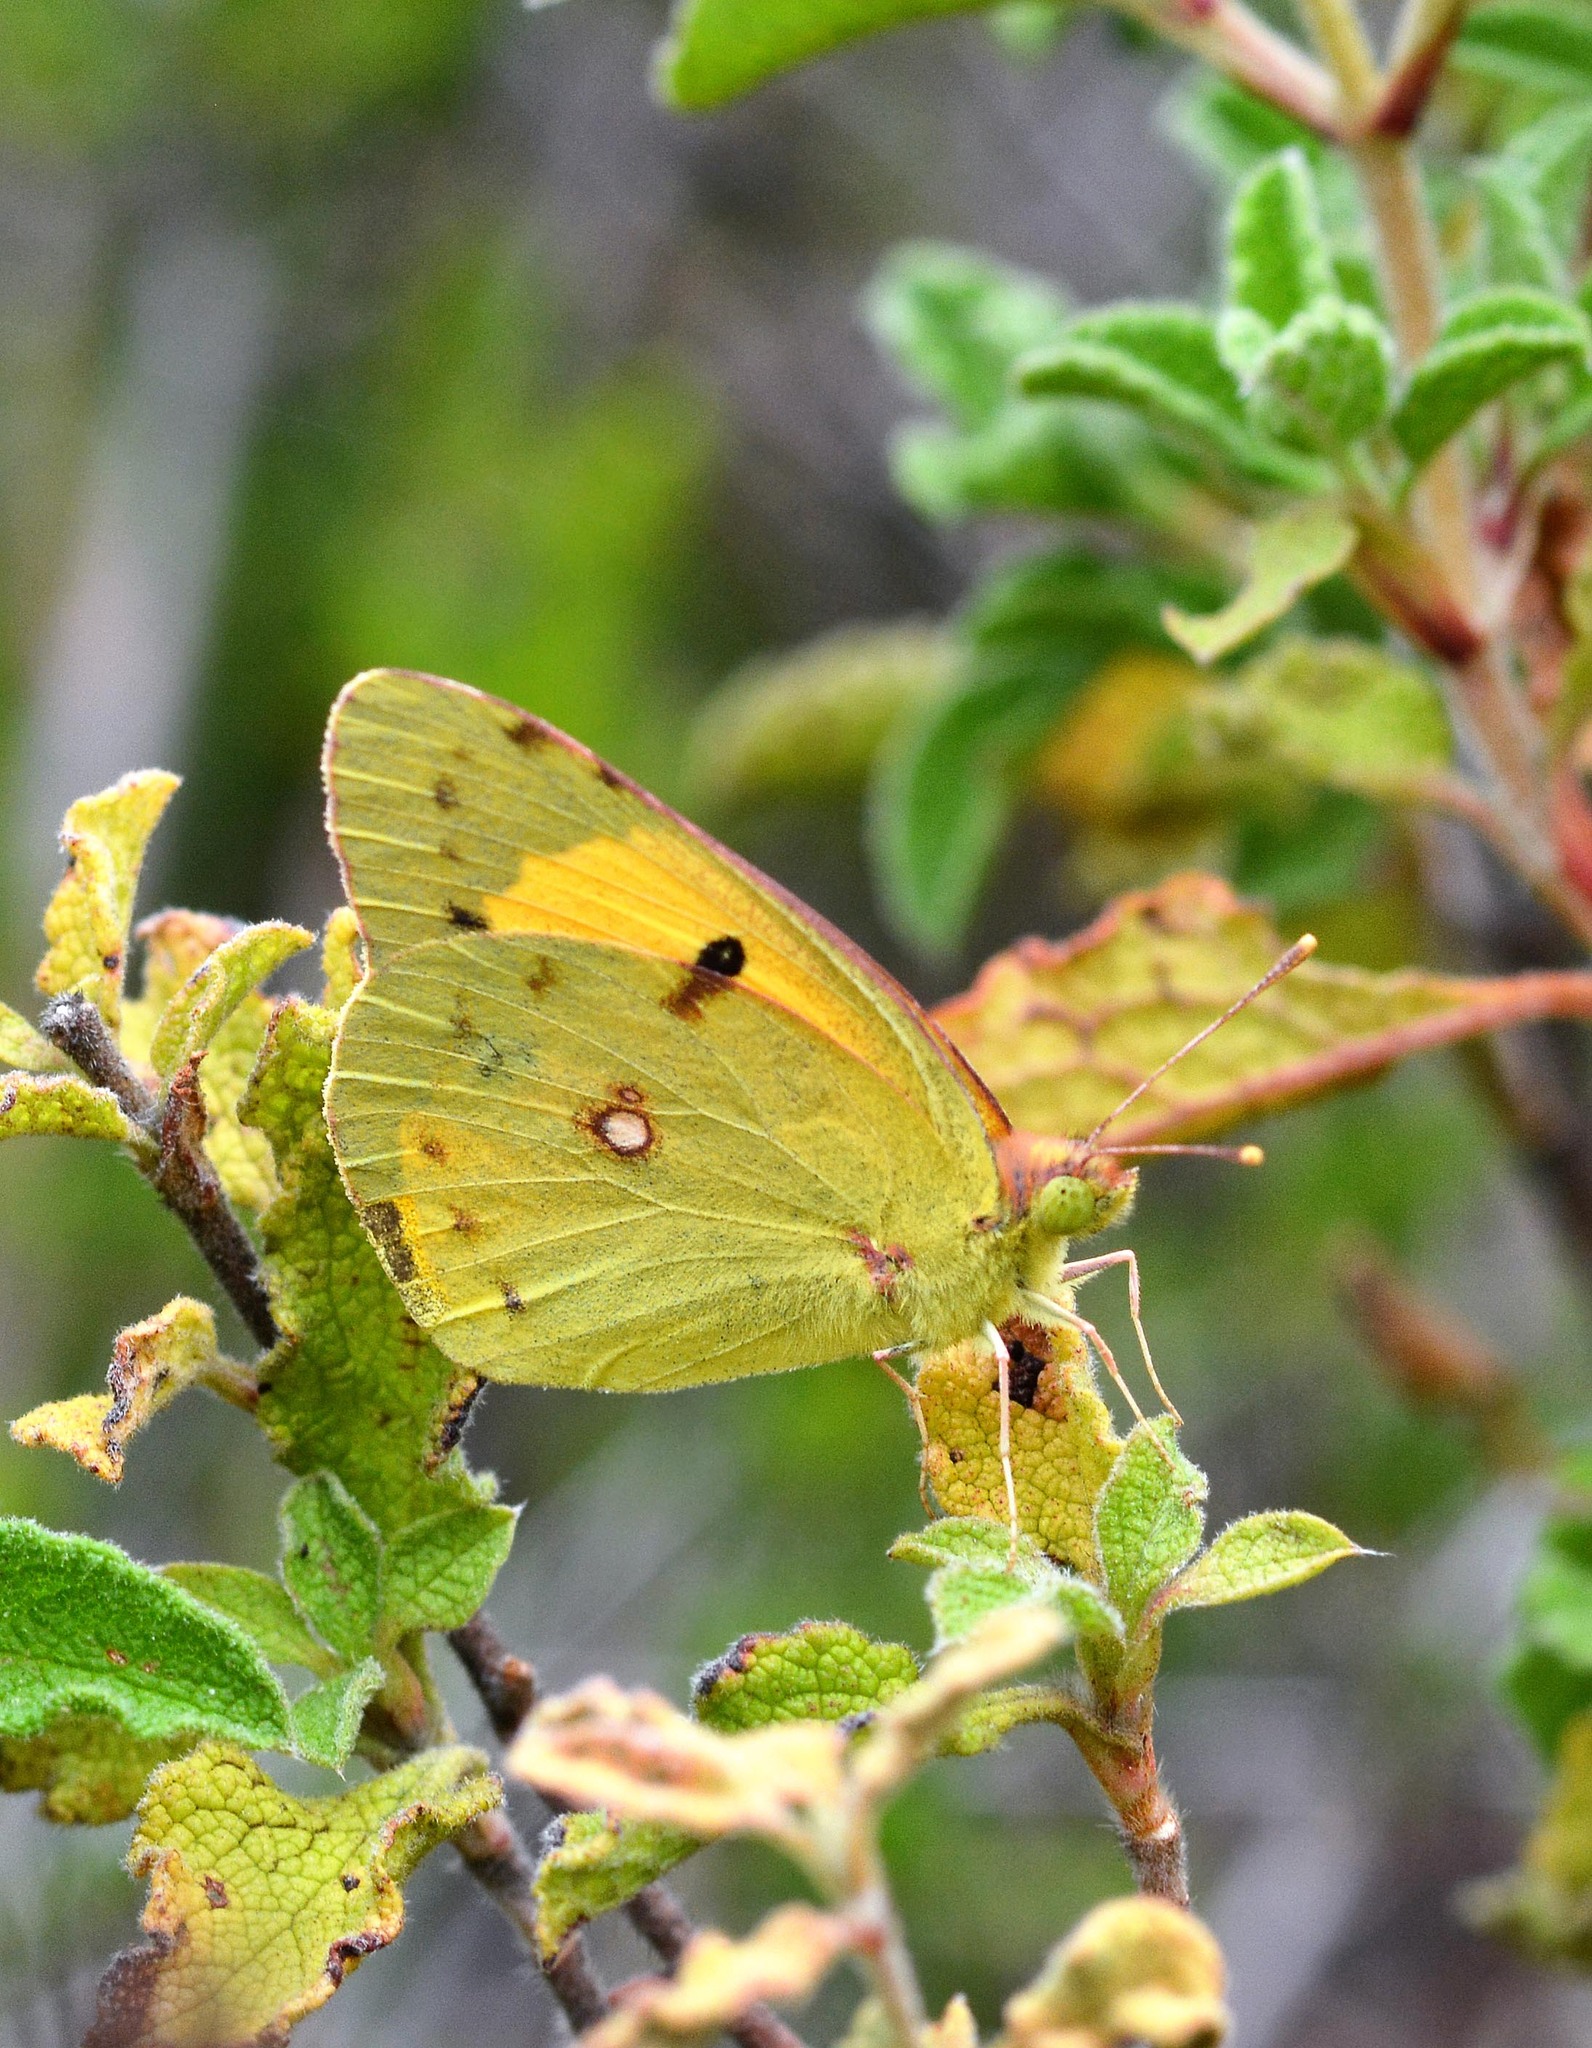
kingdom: Animalia
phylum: Arthropoda
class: Insecta
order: Lepidoptera
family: Pieridae
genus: Colias
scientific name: Colias croceus
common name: Clouded yellow
